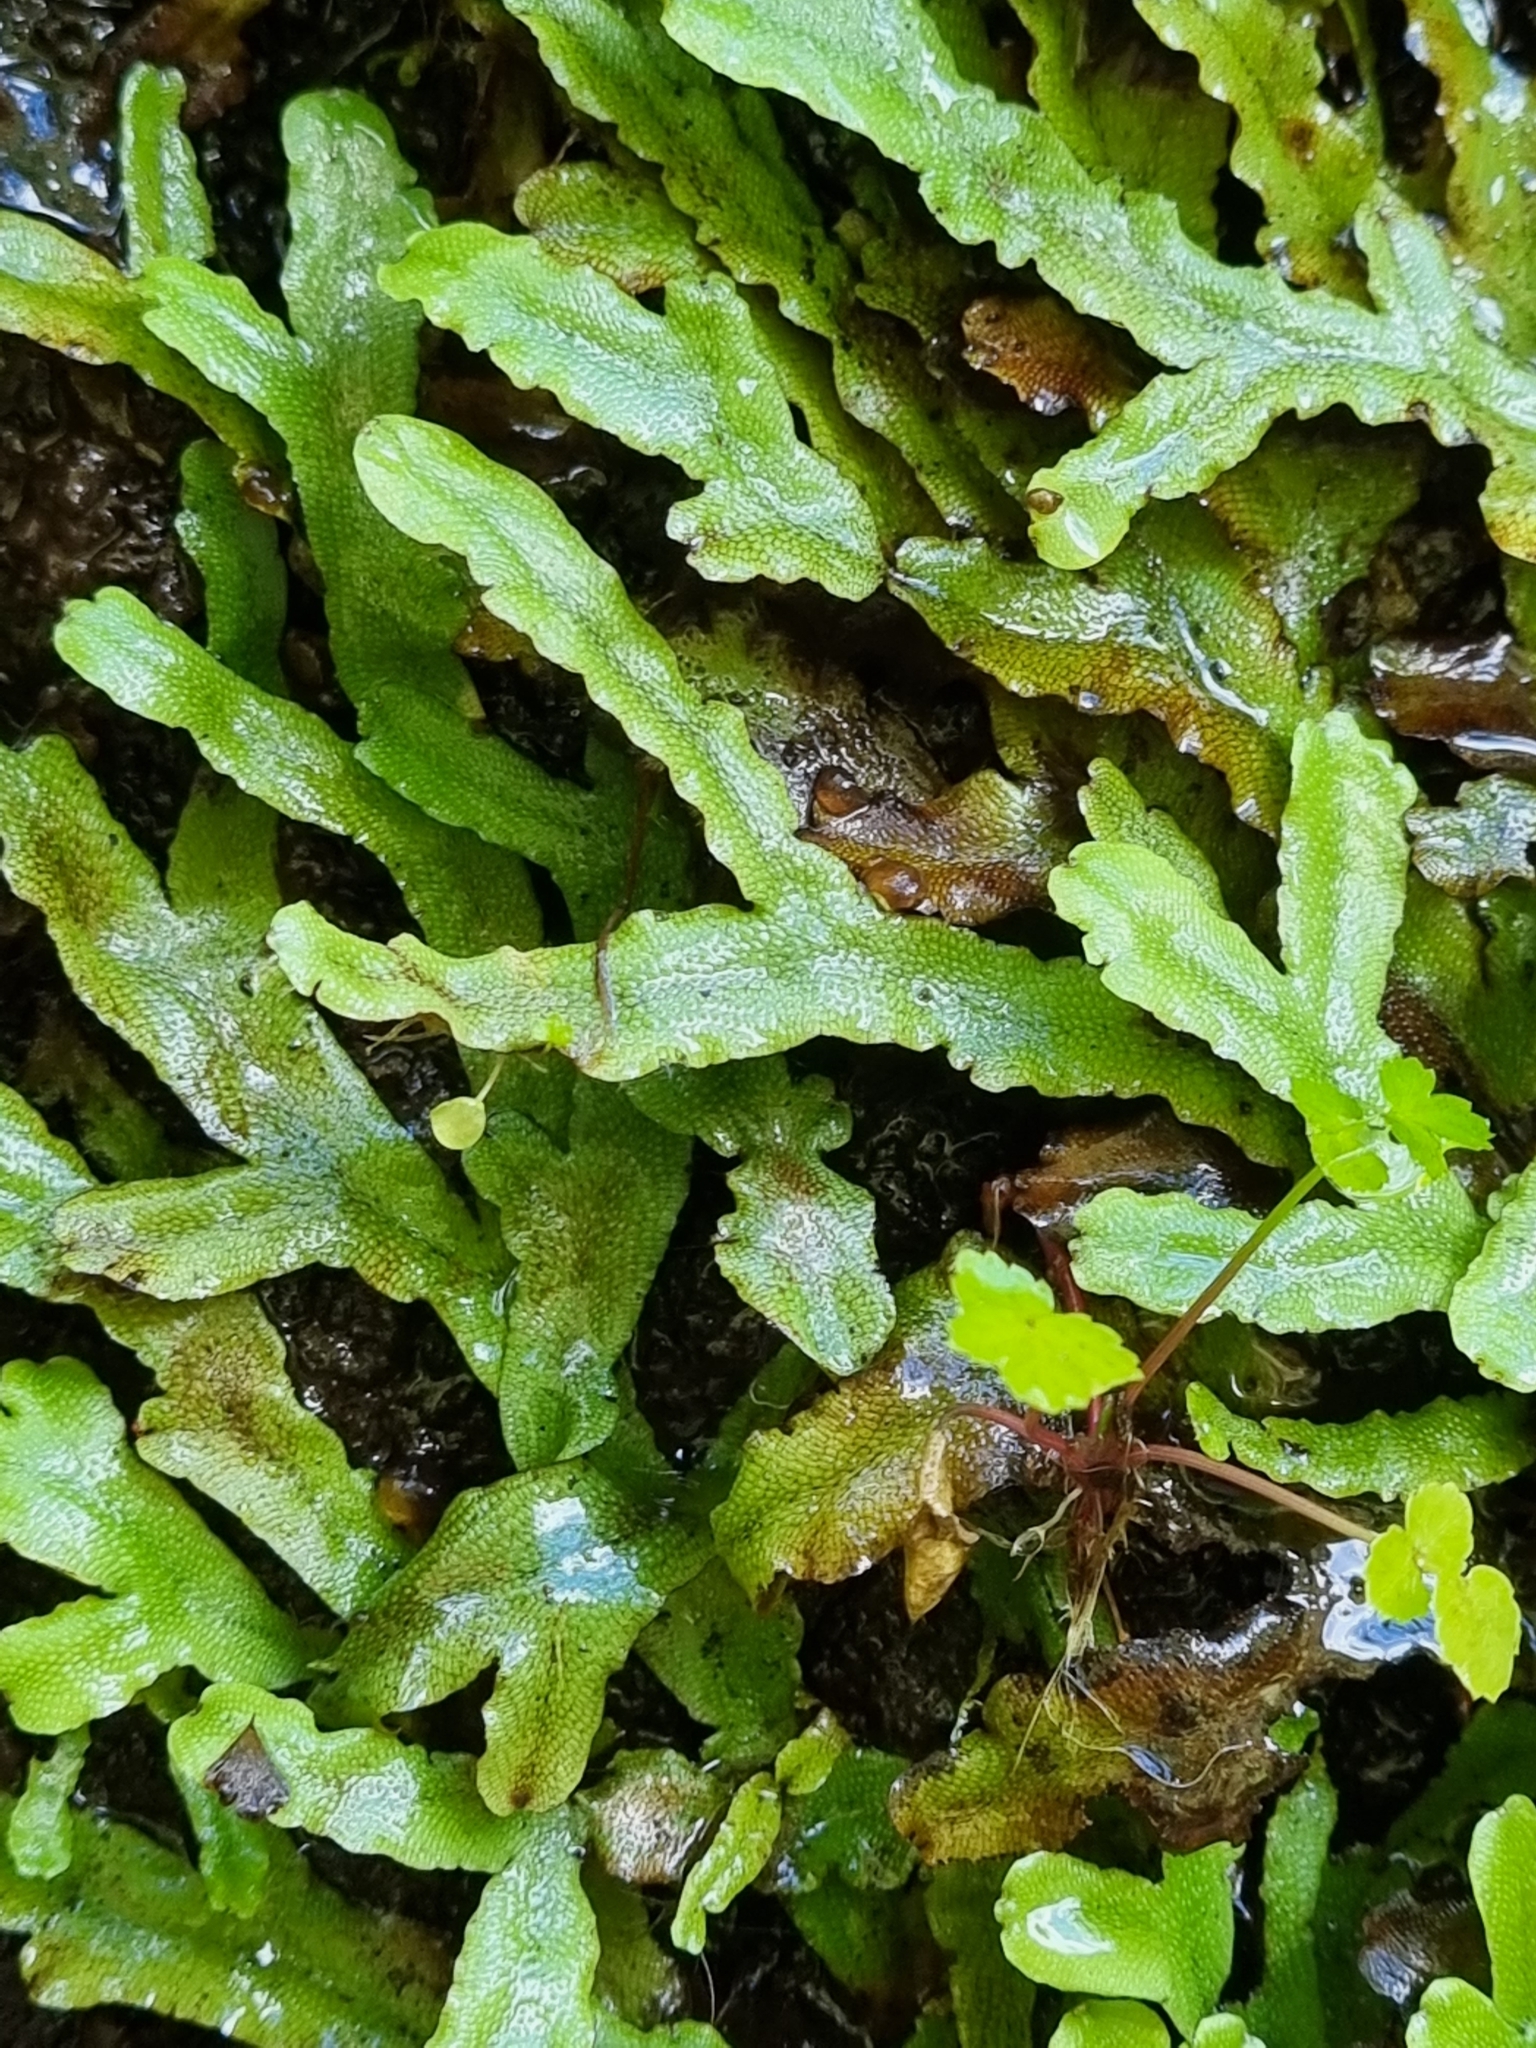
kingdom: Plantae
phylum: Marchantiophyta
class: Marchantiopsida
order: Marchantiales
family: Conocephalaceae
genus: Conocephalum
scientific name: Conocephalum conicum
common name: Great scented liverwort
